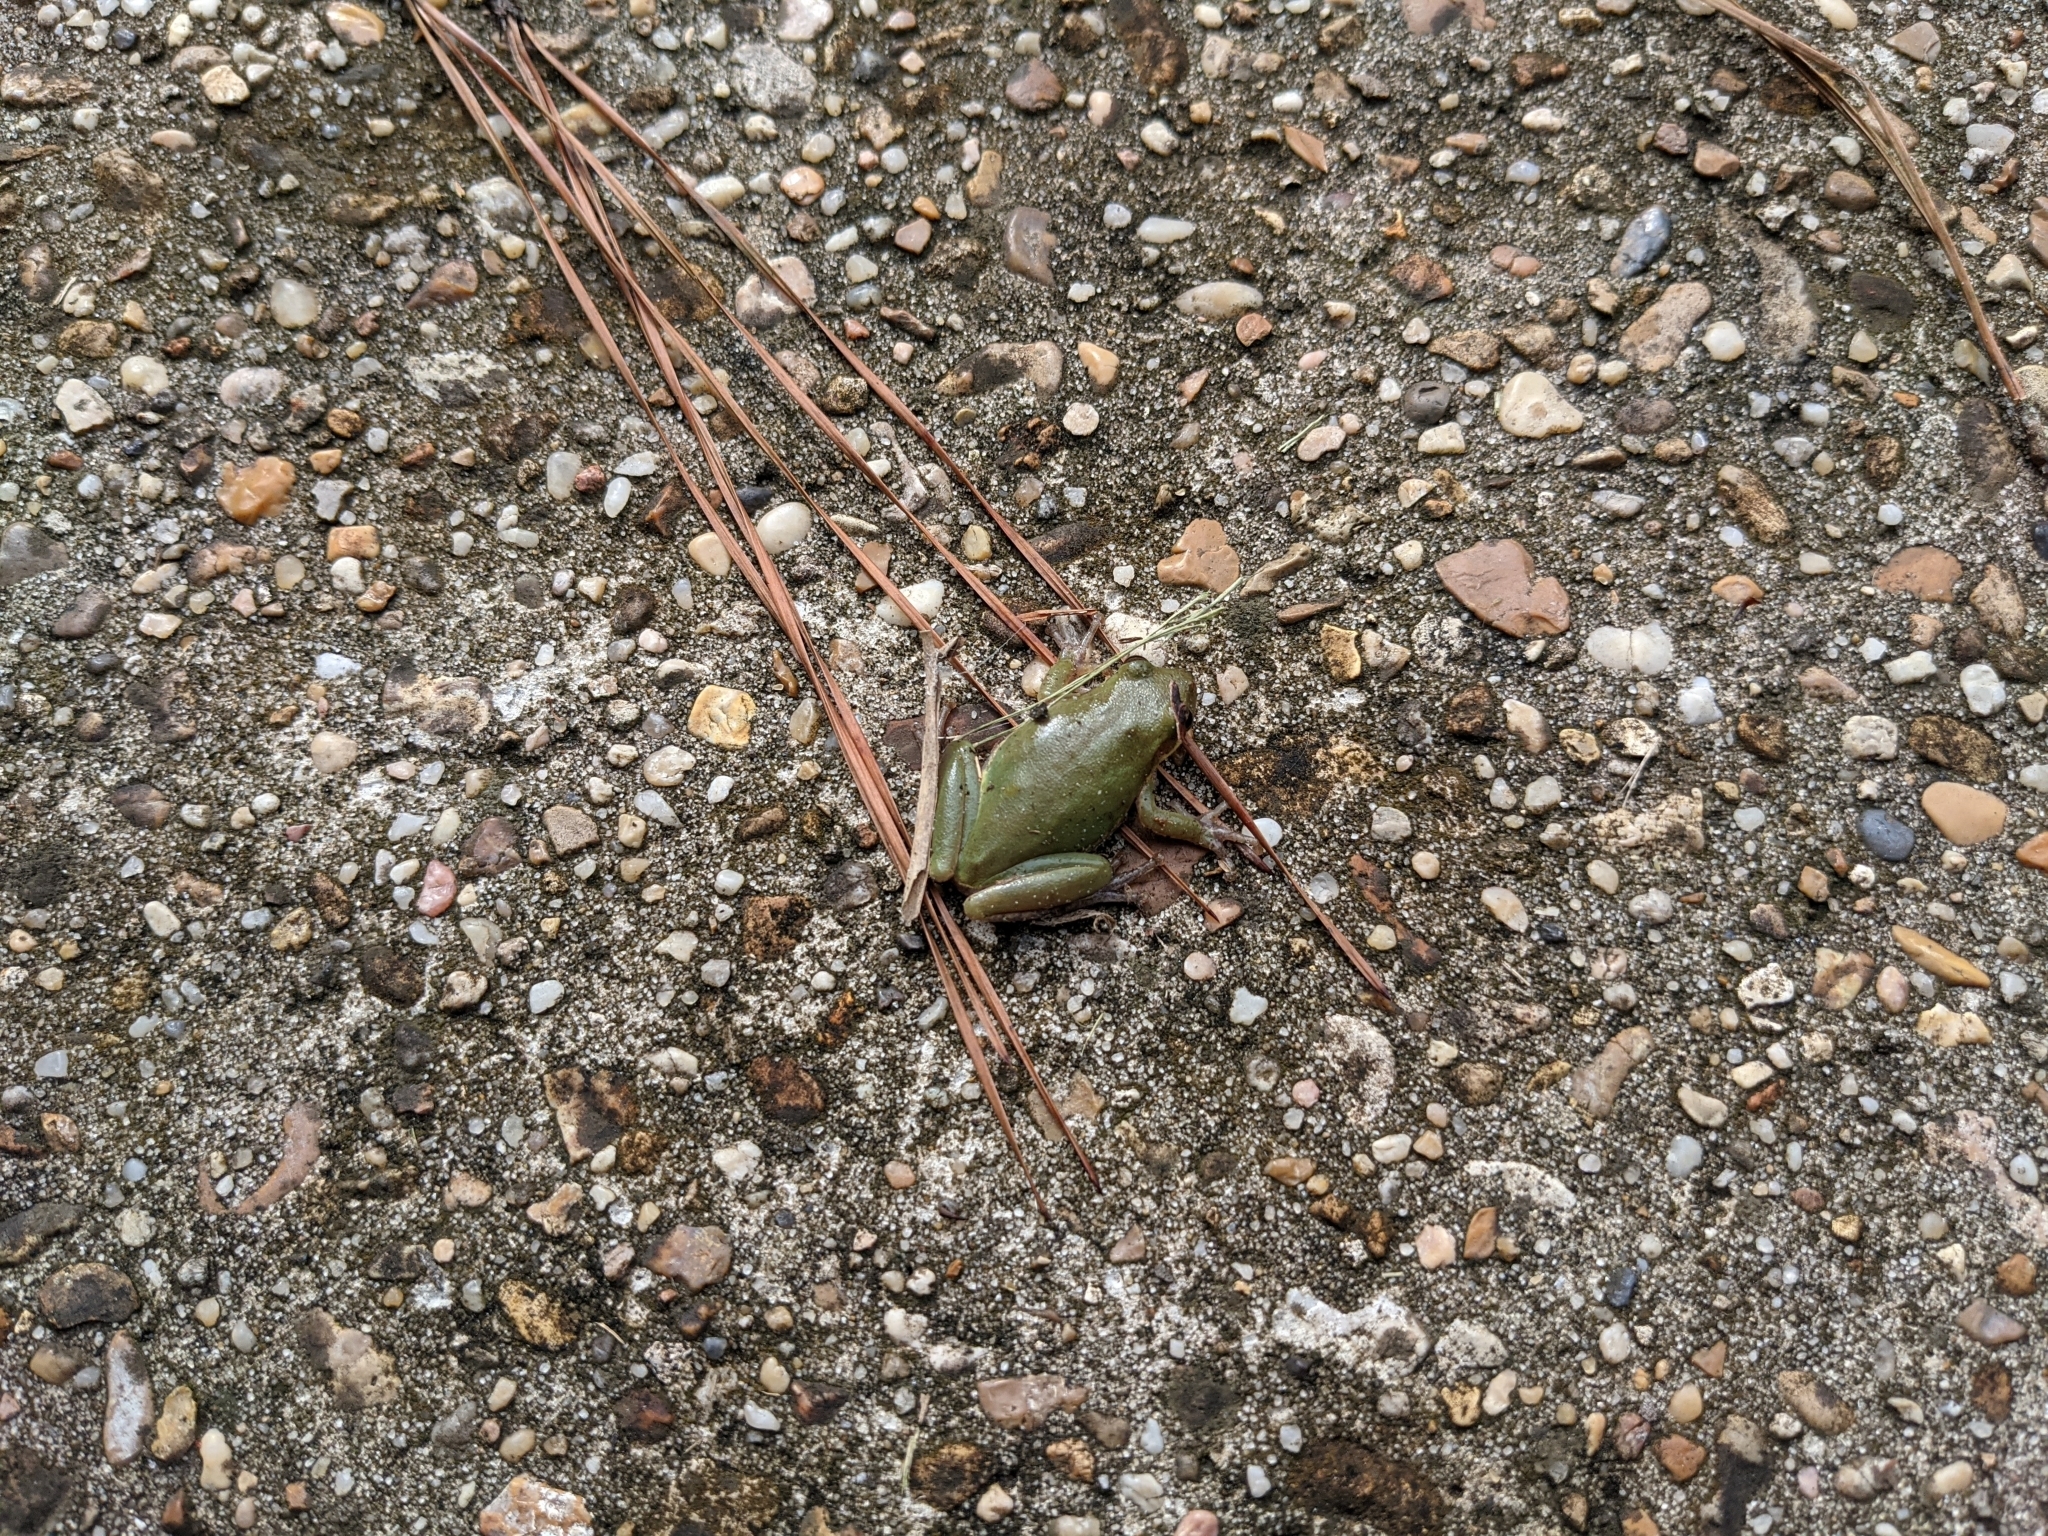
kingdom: Animalia
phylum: Chordata
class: Amphibia
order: Anura
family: Hylidae
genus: Dryophytes
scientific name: Dryophytes squirellus
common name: Squirrel treefrog
